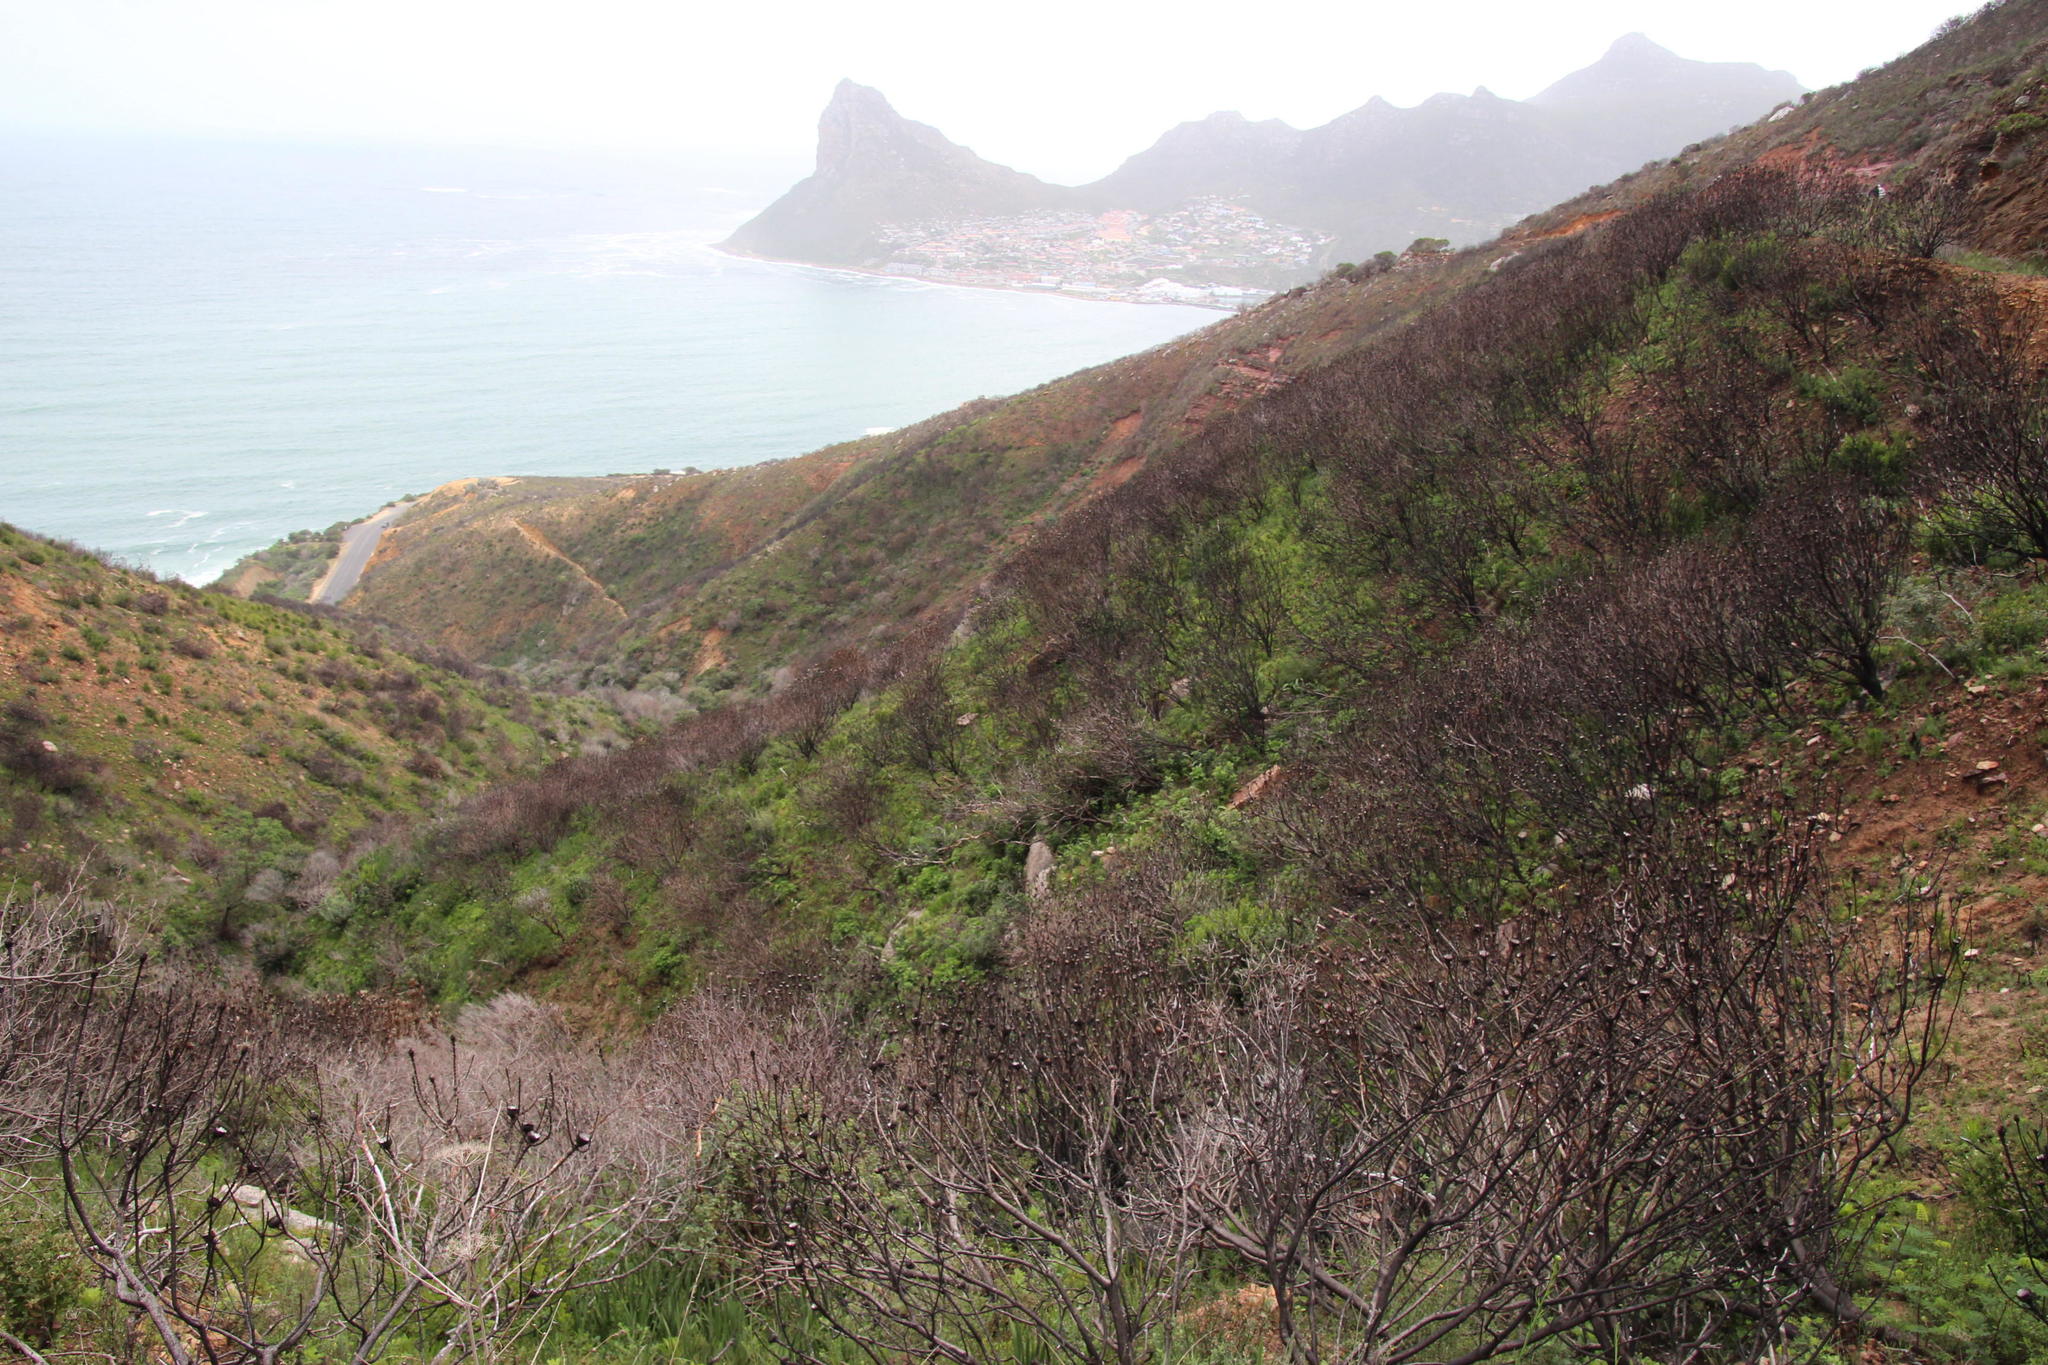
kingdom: Plantae
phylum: Tracheophyta
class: Magnoliopsida
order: Proteales
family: Proteaceae
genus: Protea
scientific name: Protea lepidocarpodendron
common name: Black-bearded protea
